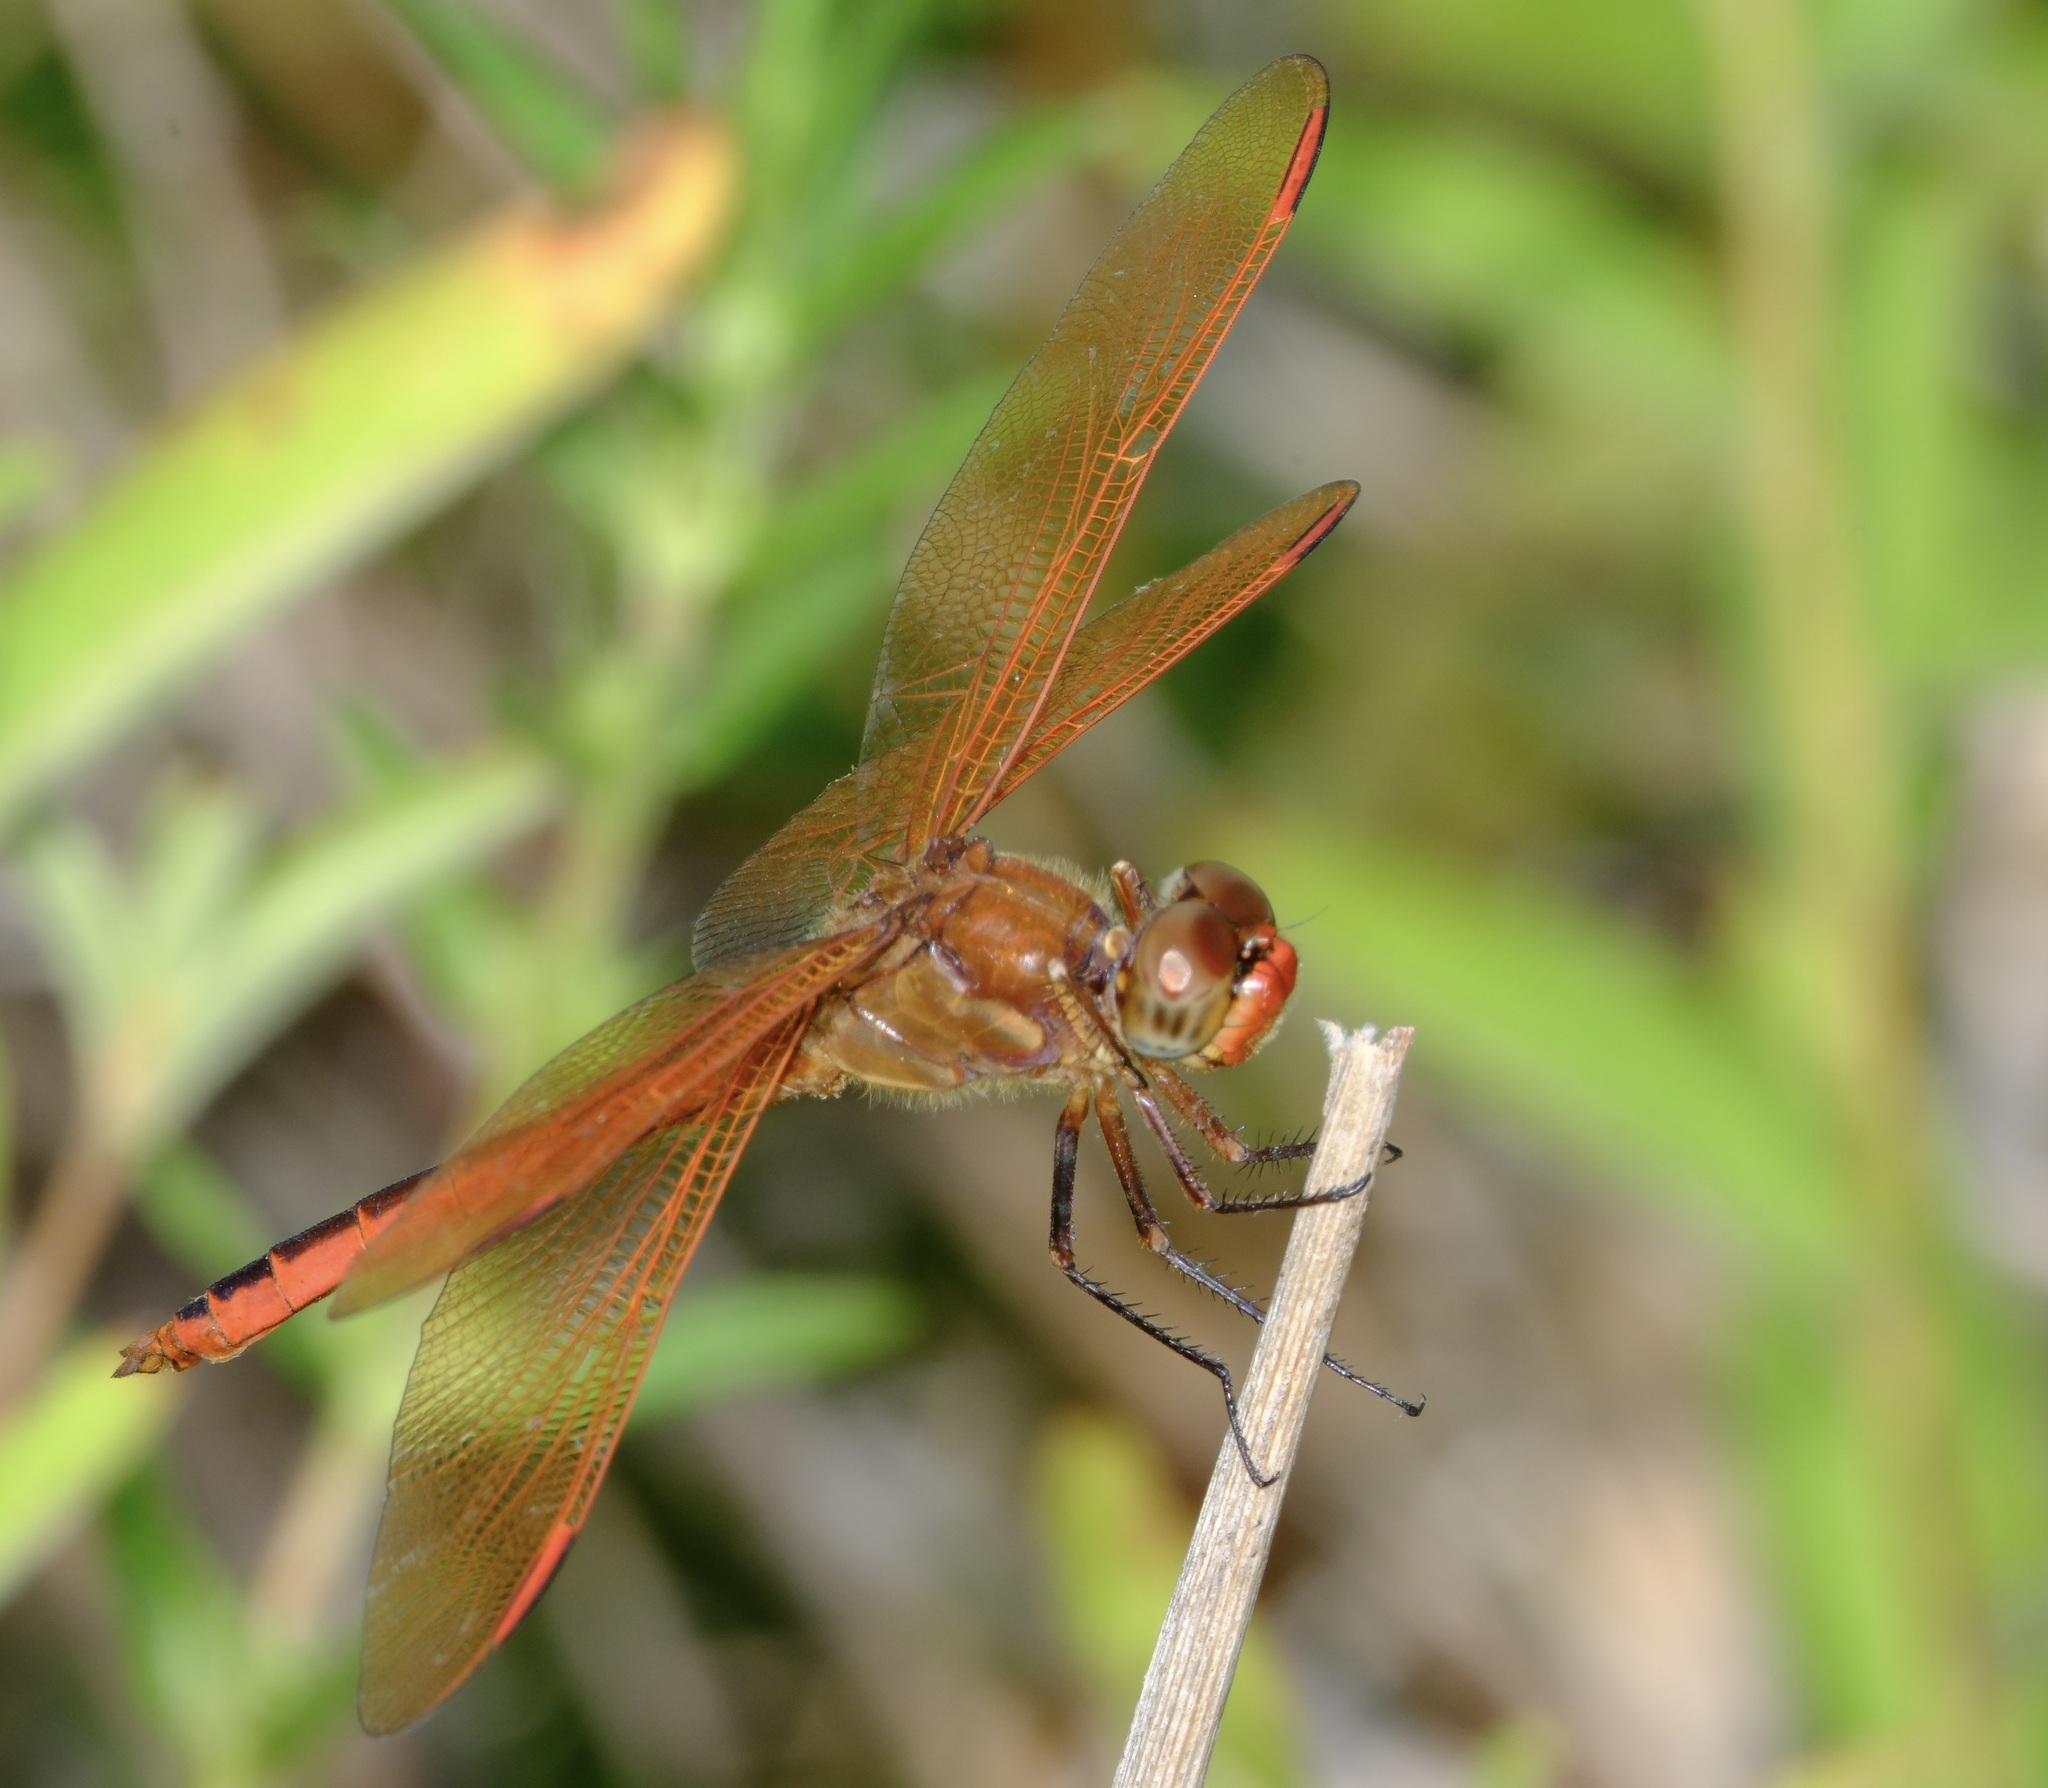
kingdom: Animalia
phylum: Arthropoda
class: Insecta
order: Odonata
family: Libellulidae
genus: Libellula
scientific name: Libellula auripennis
